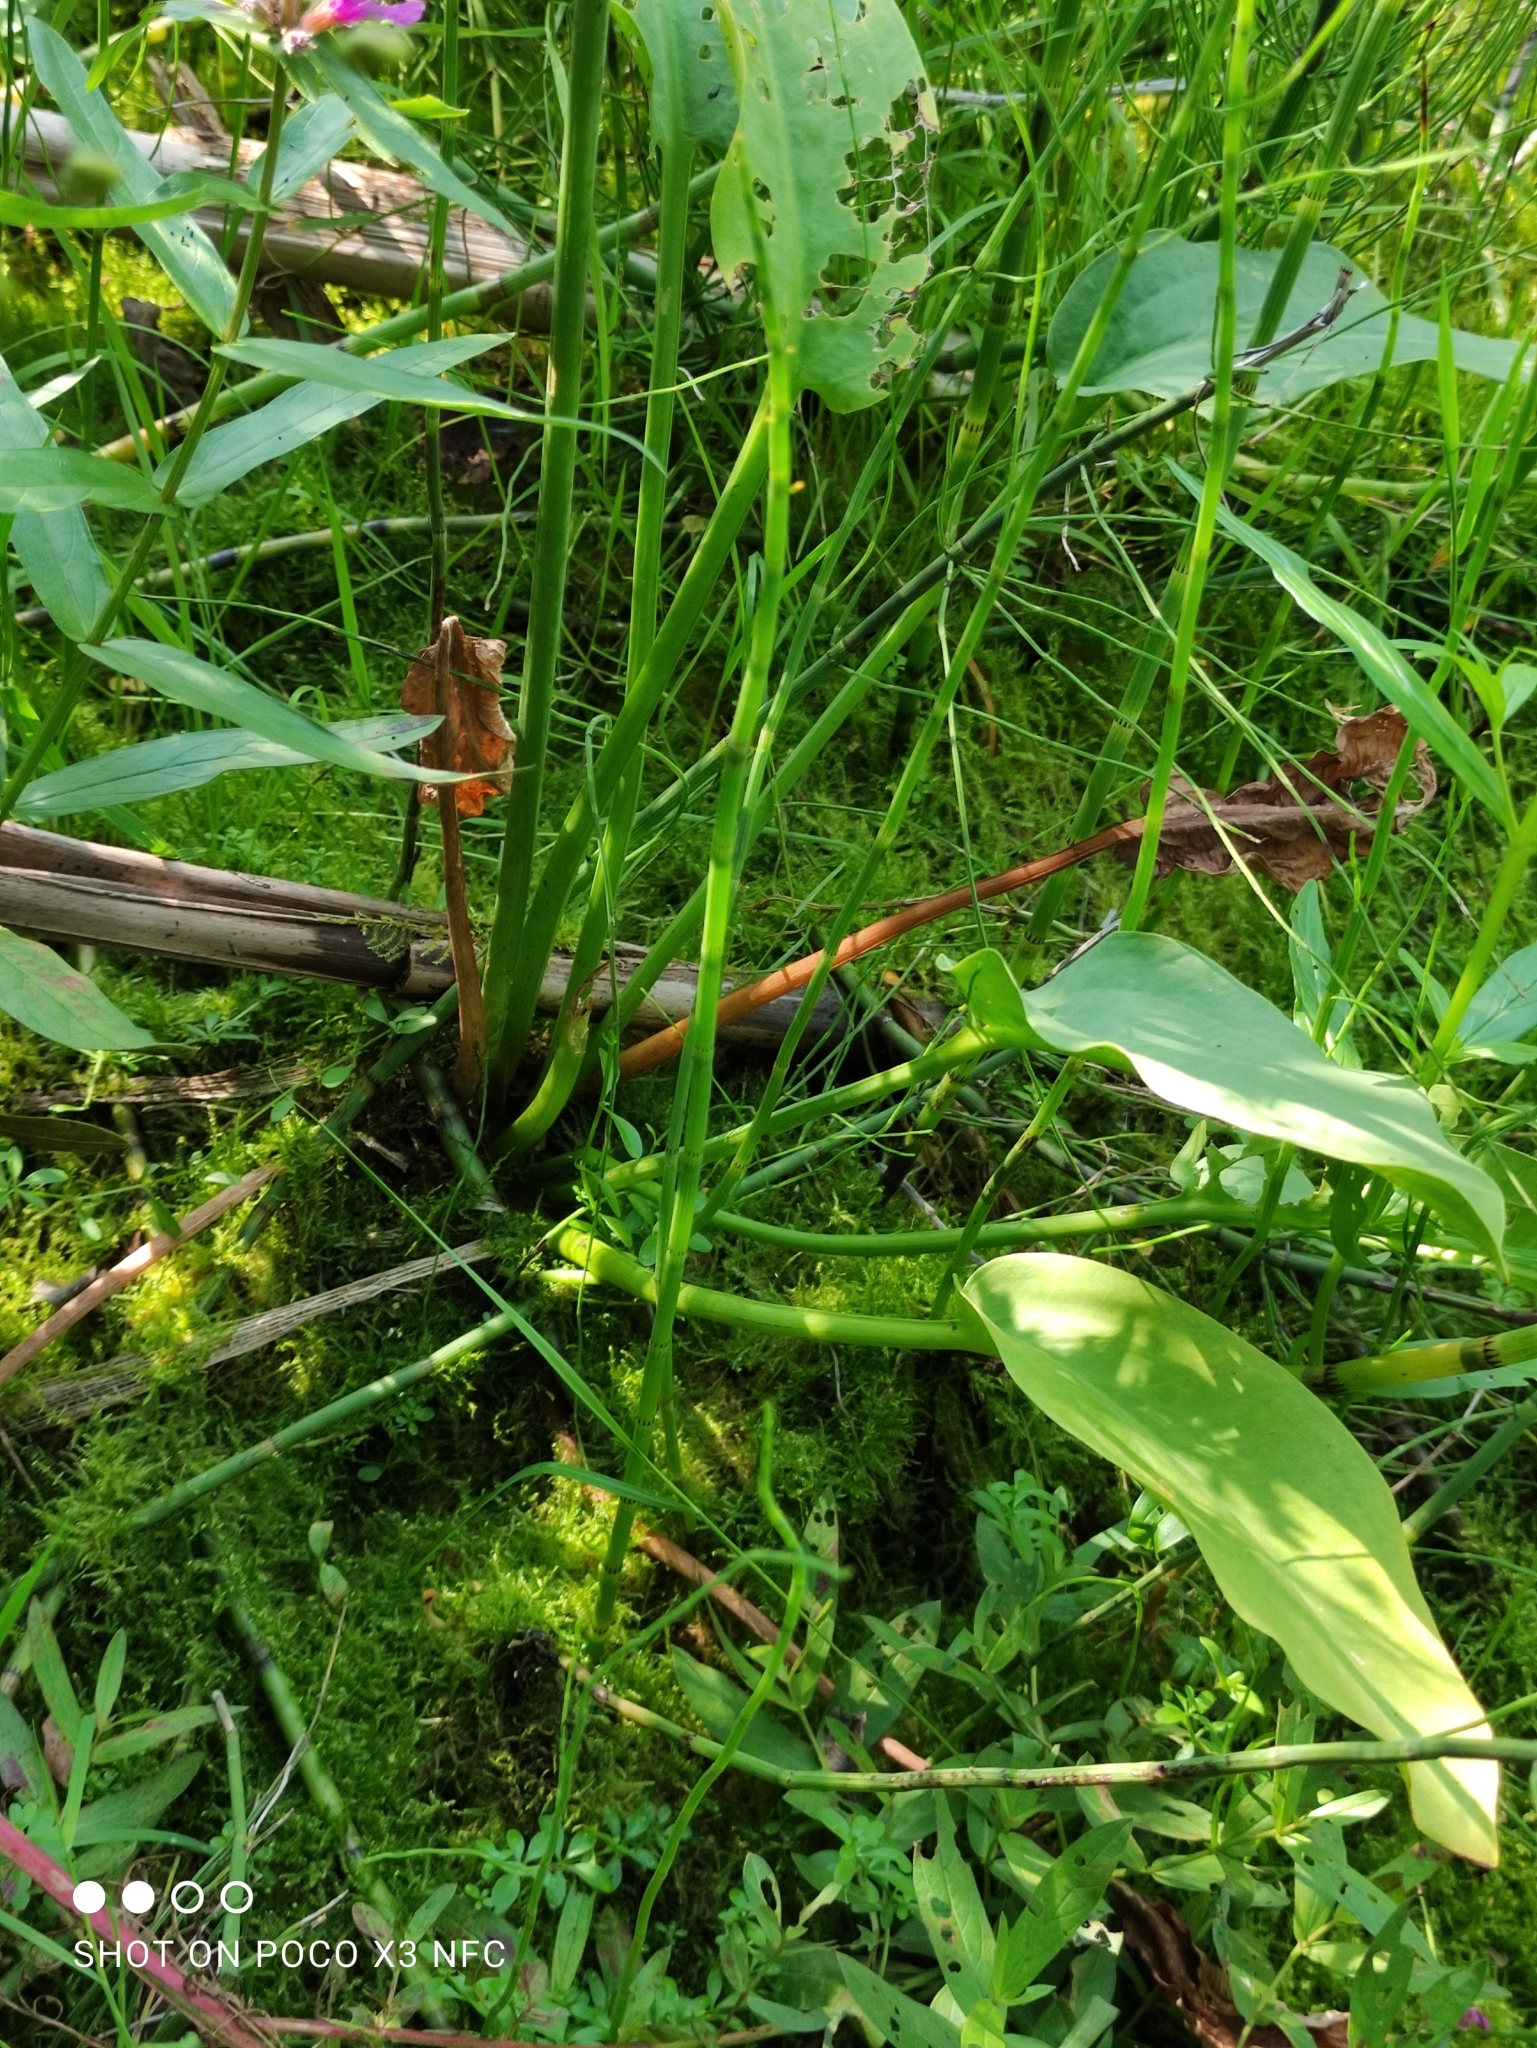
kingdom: Plantae
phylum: Tracheophyta
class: Liliopsida
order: Alismatales
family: Alismataceae
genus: Alisma
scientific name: Alisma plantago-aquatica
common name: Water-plantain
